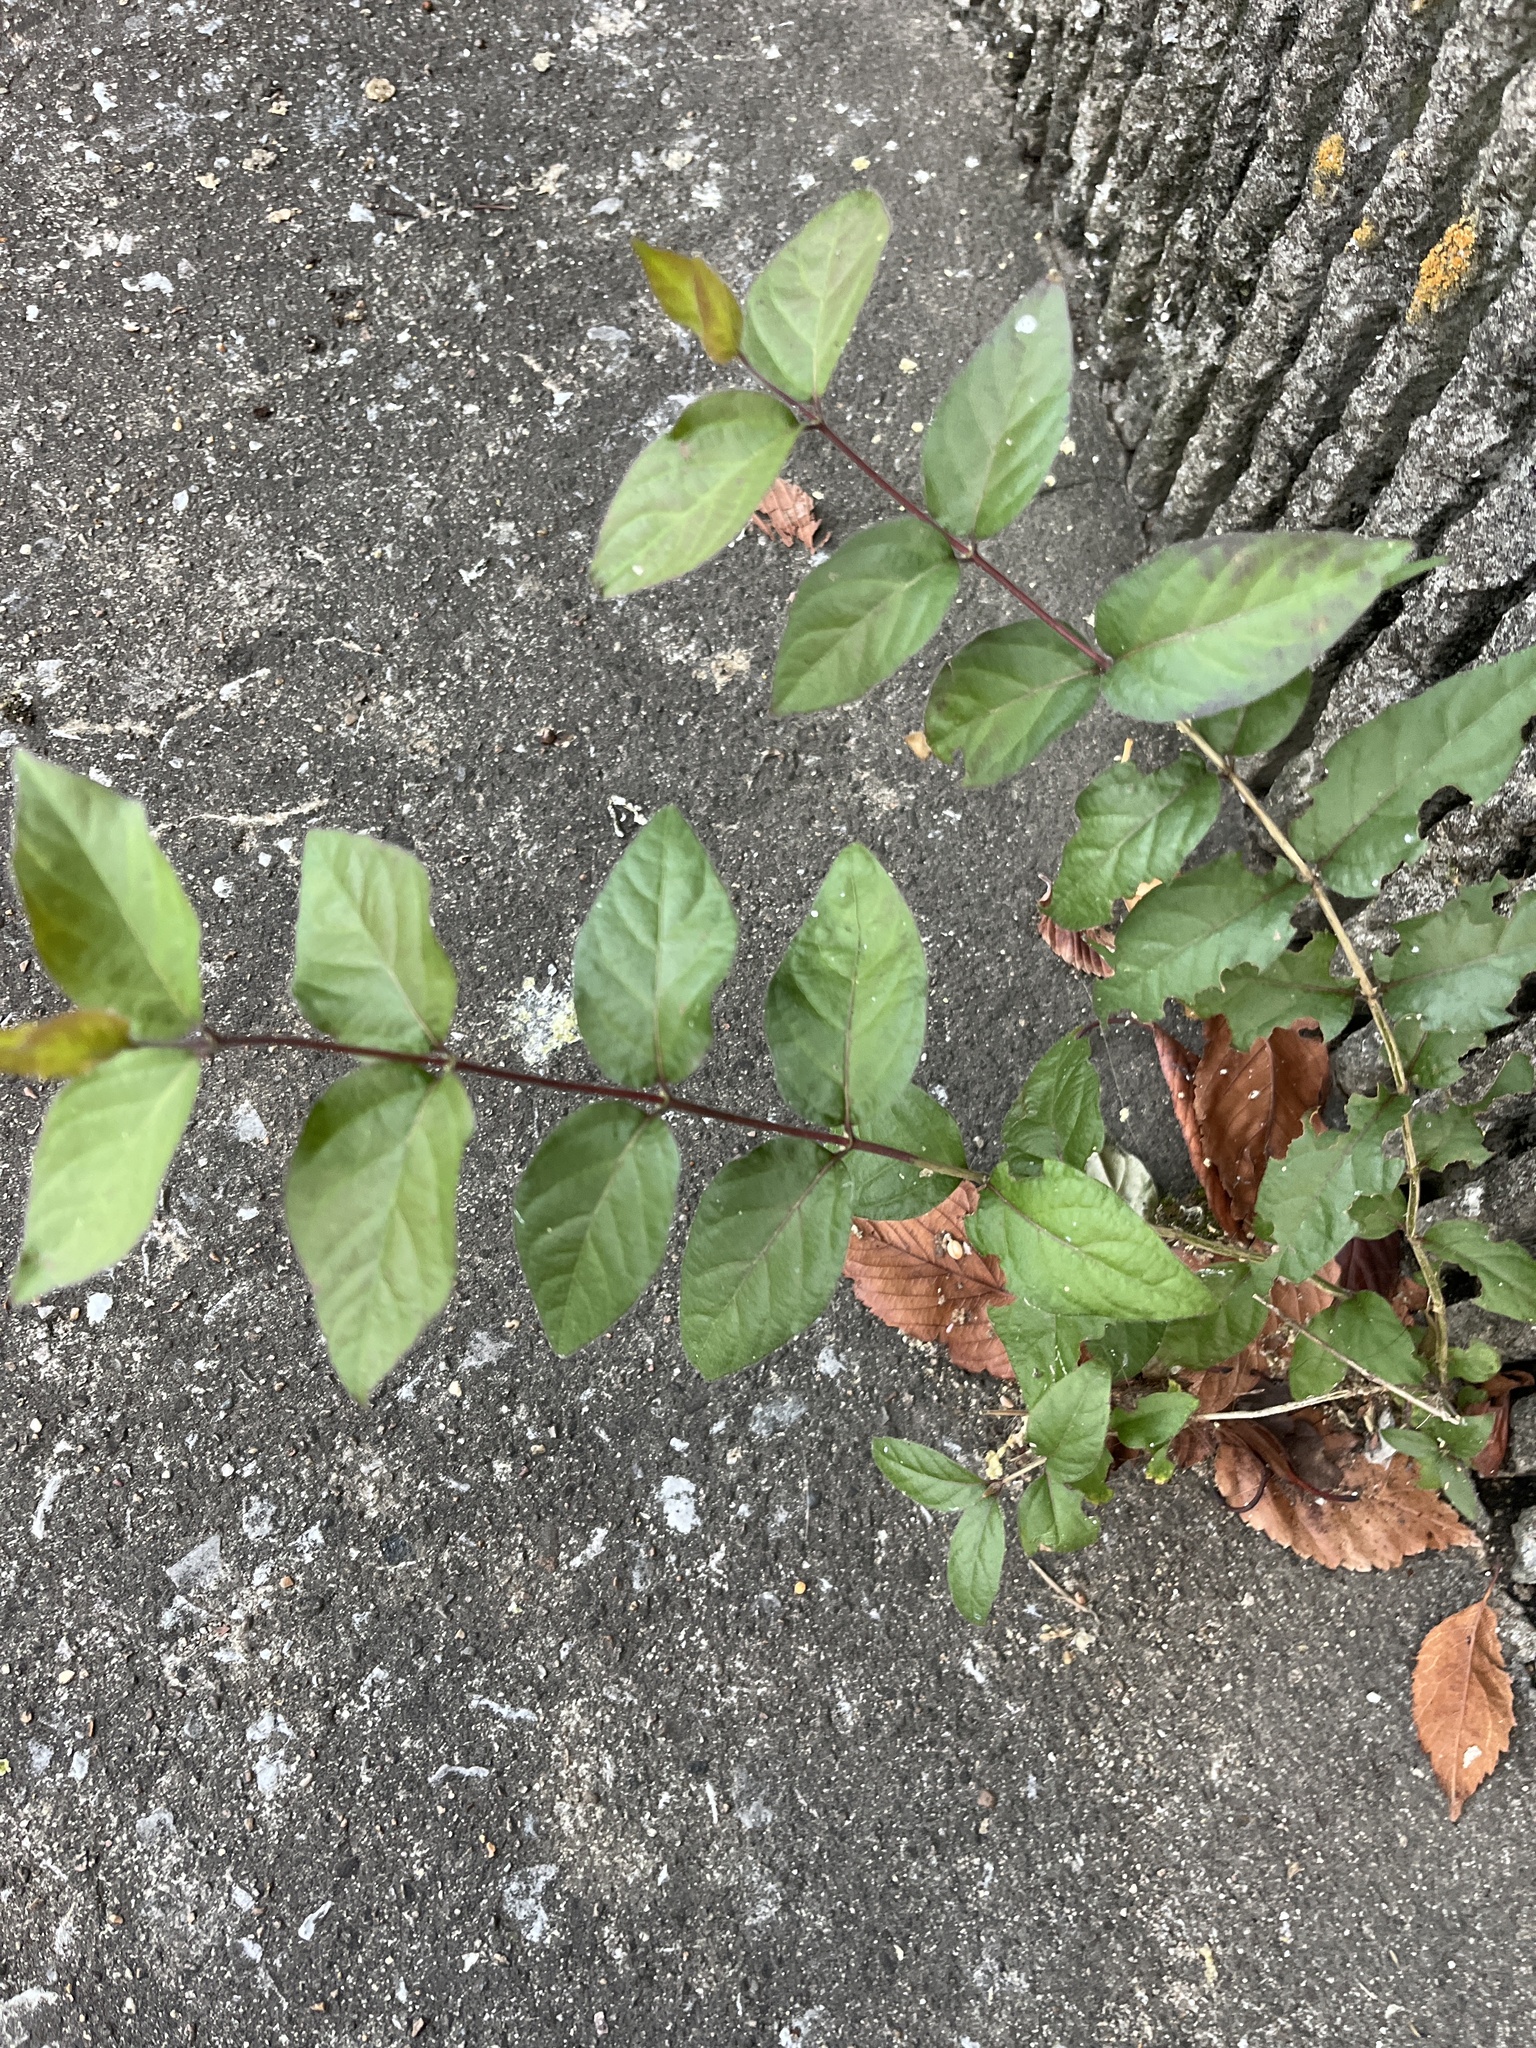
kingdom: Plantae
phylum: Tracheophyta
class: Magnoliopsida
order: Dipsacales
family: Caprifoliaceae
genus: Lonicera
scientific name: Lonicera maackii
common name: Amur honeysuckle
